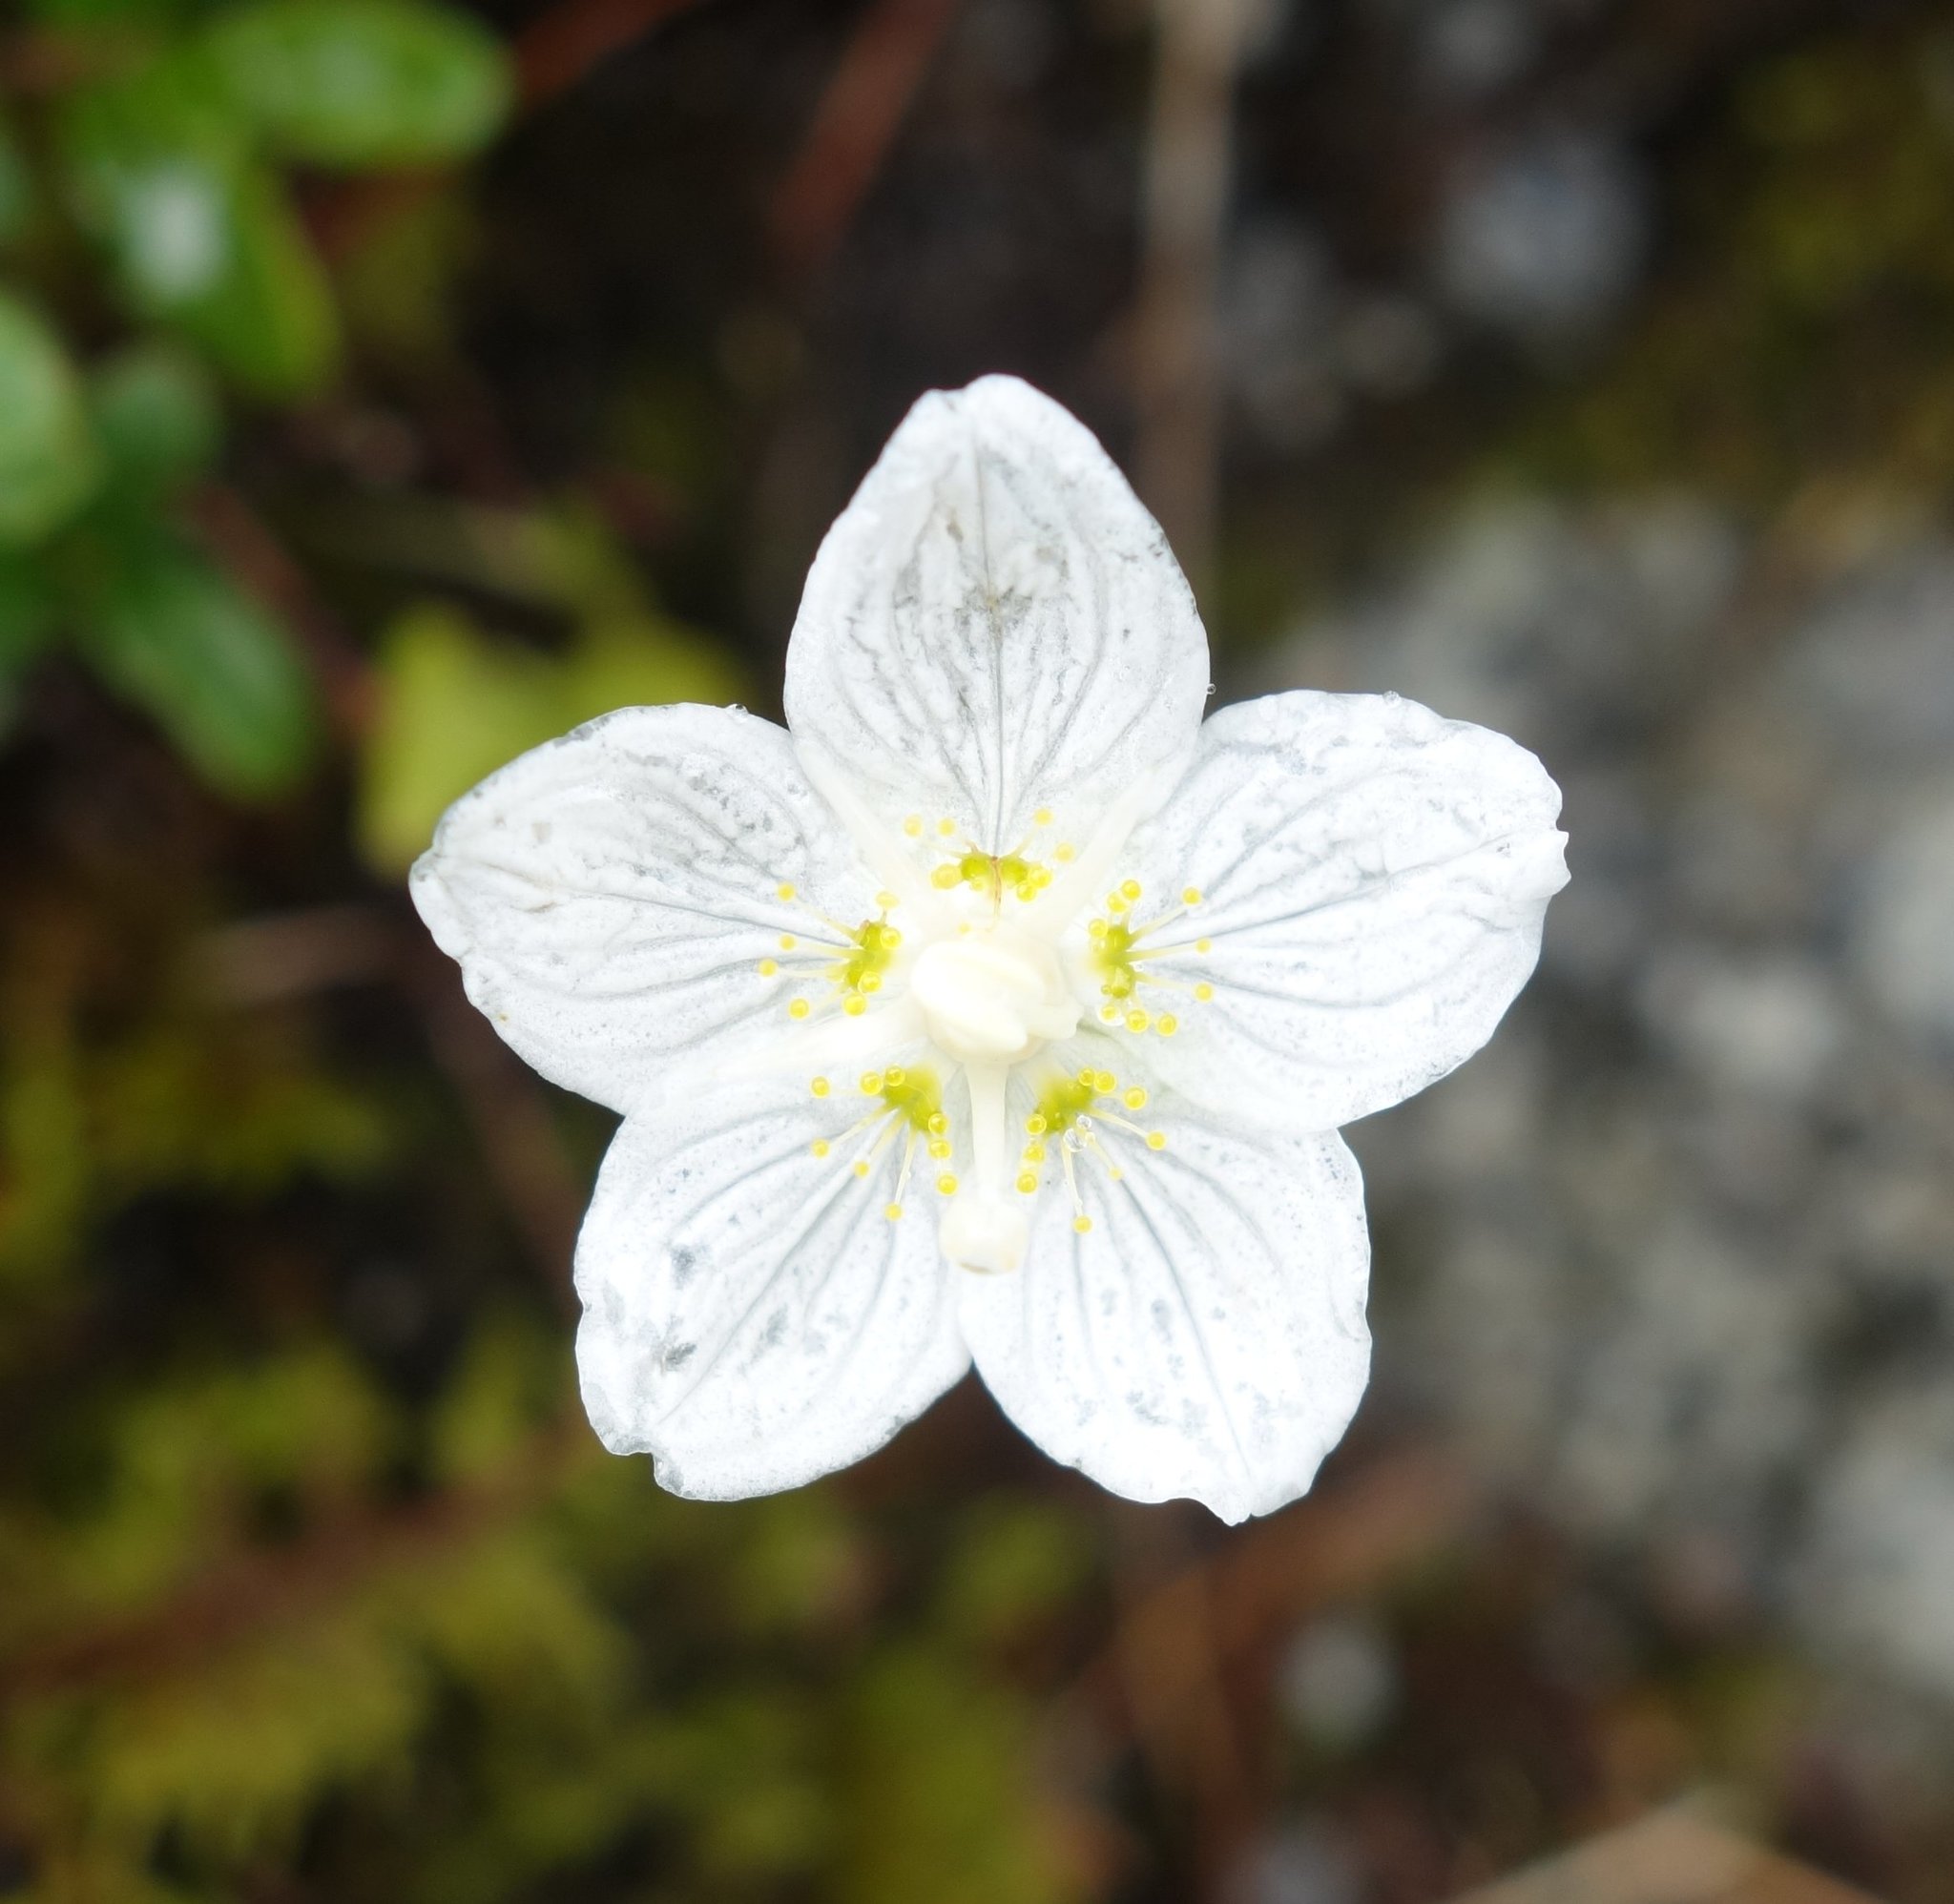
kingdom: Plantae
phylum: Tracheophyta
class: Magnoliopsida
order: Celastrales
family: Parnassiaceae
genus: Parnassia
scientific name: Parnassia palustris
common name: Grass-of-parnassus
